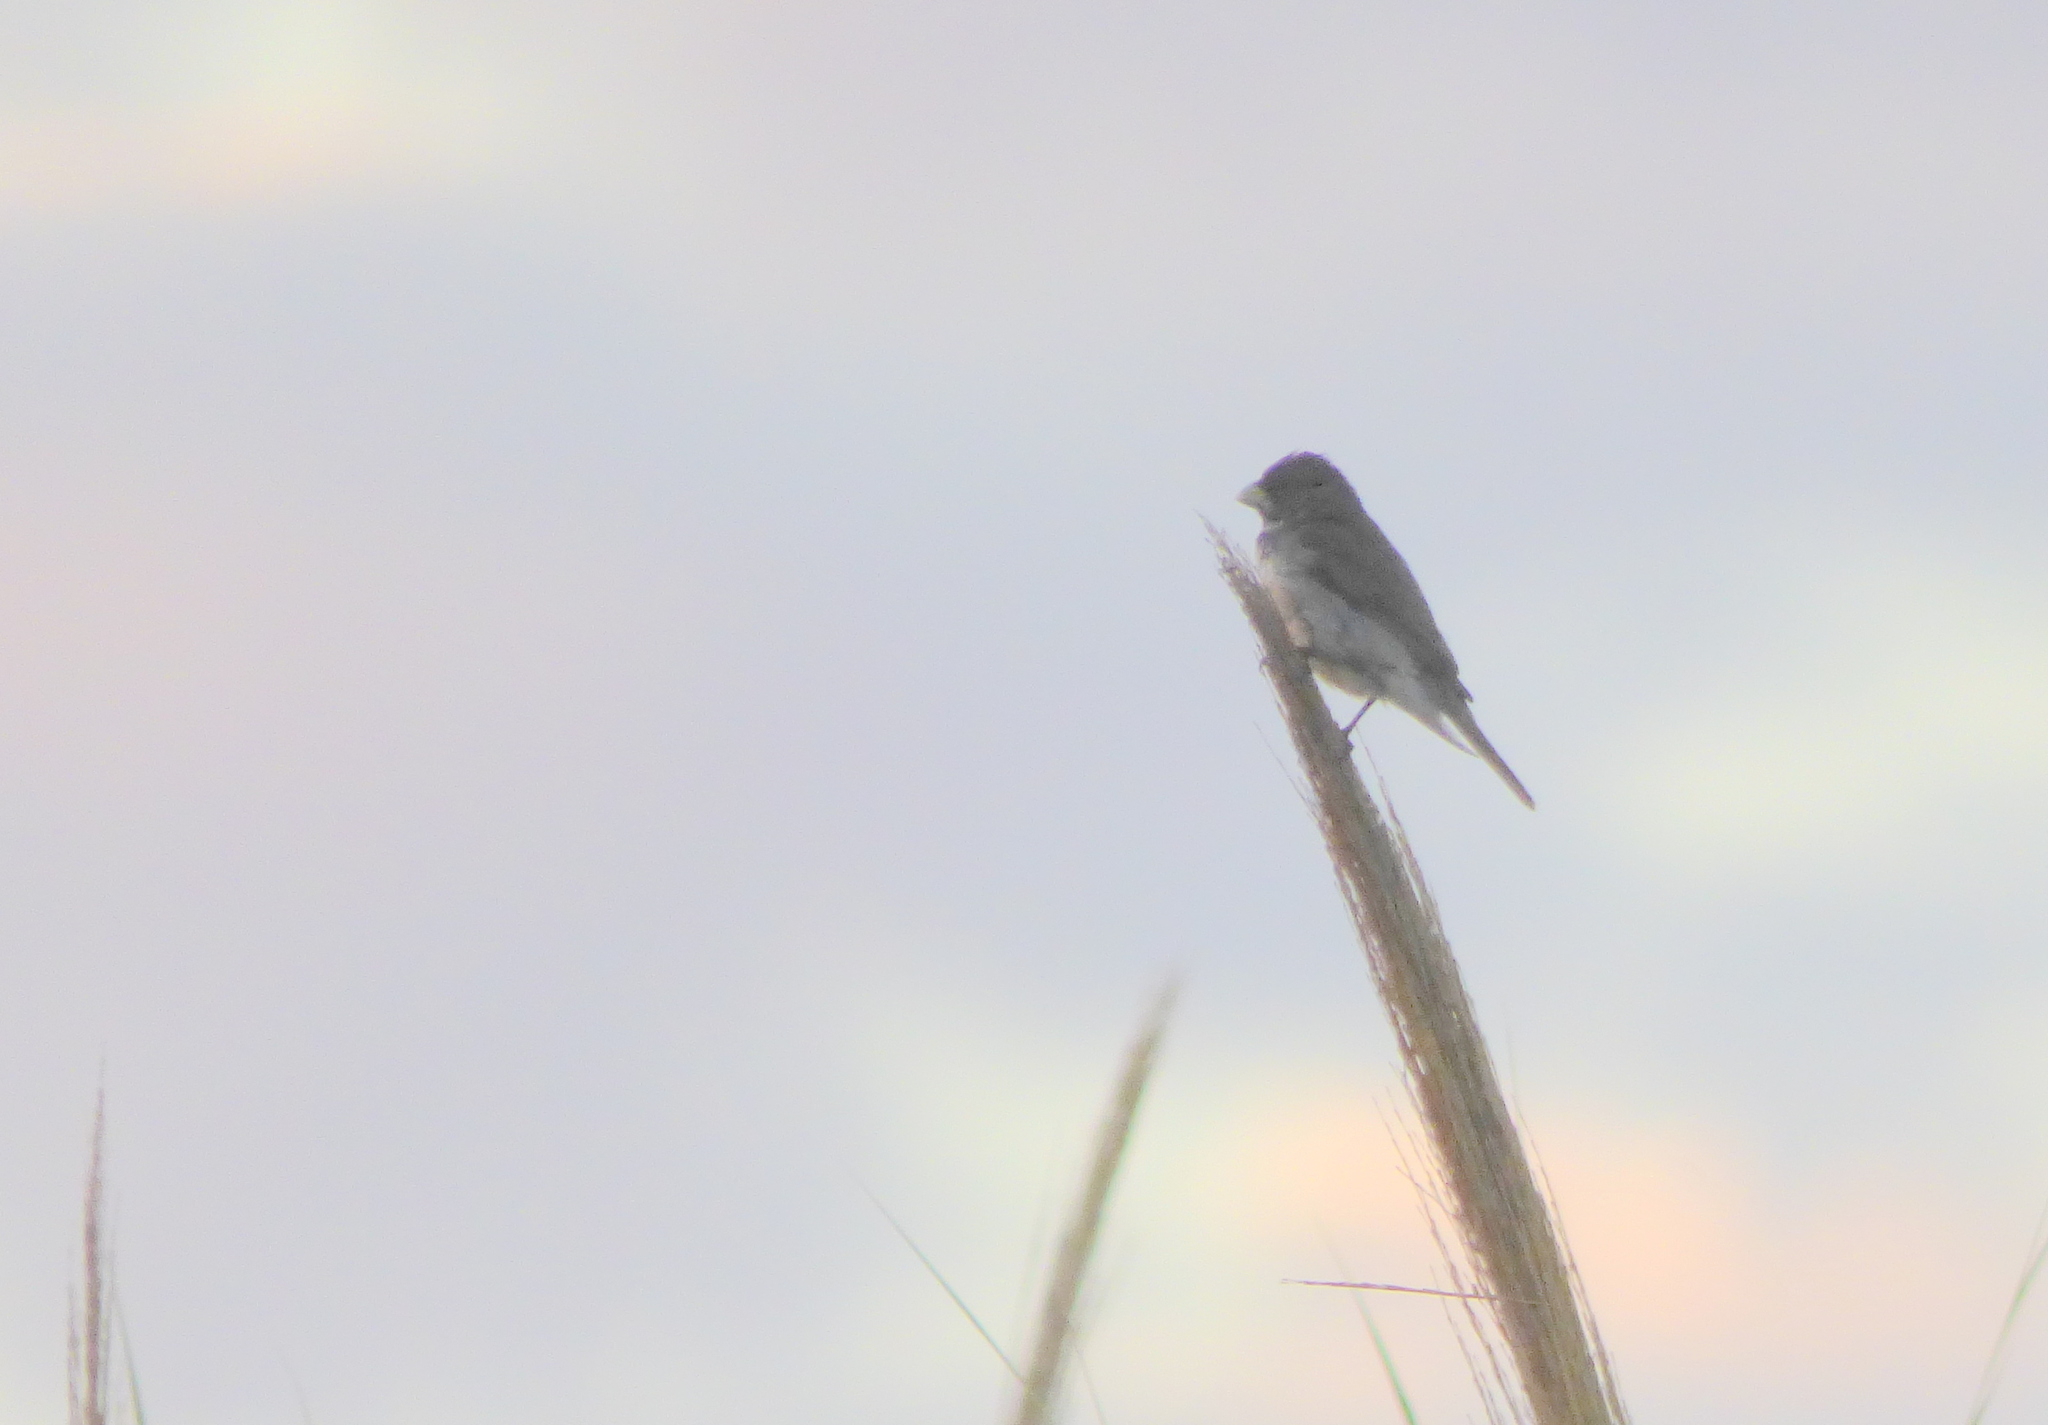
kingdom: Animalia
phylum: Chordata
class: Aves
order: Passeriformes
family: Thraupidae
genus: Sporophila
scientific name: Sporophila caerulescens
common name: Double-collared seedeater
